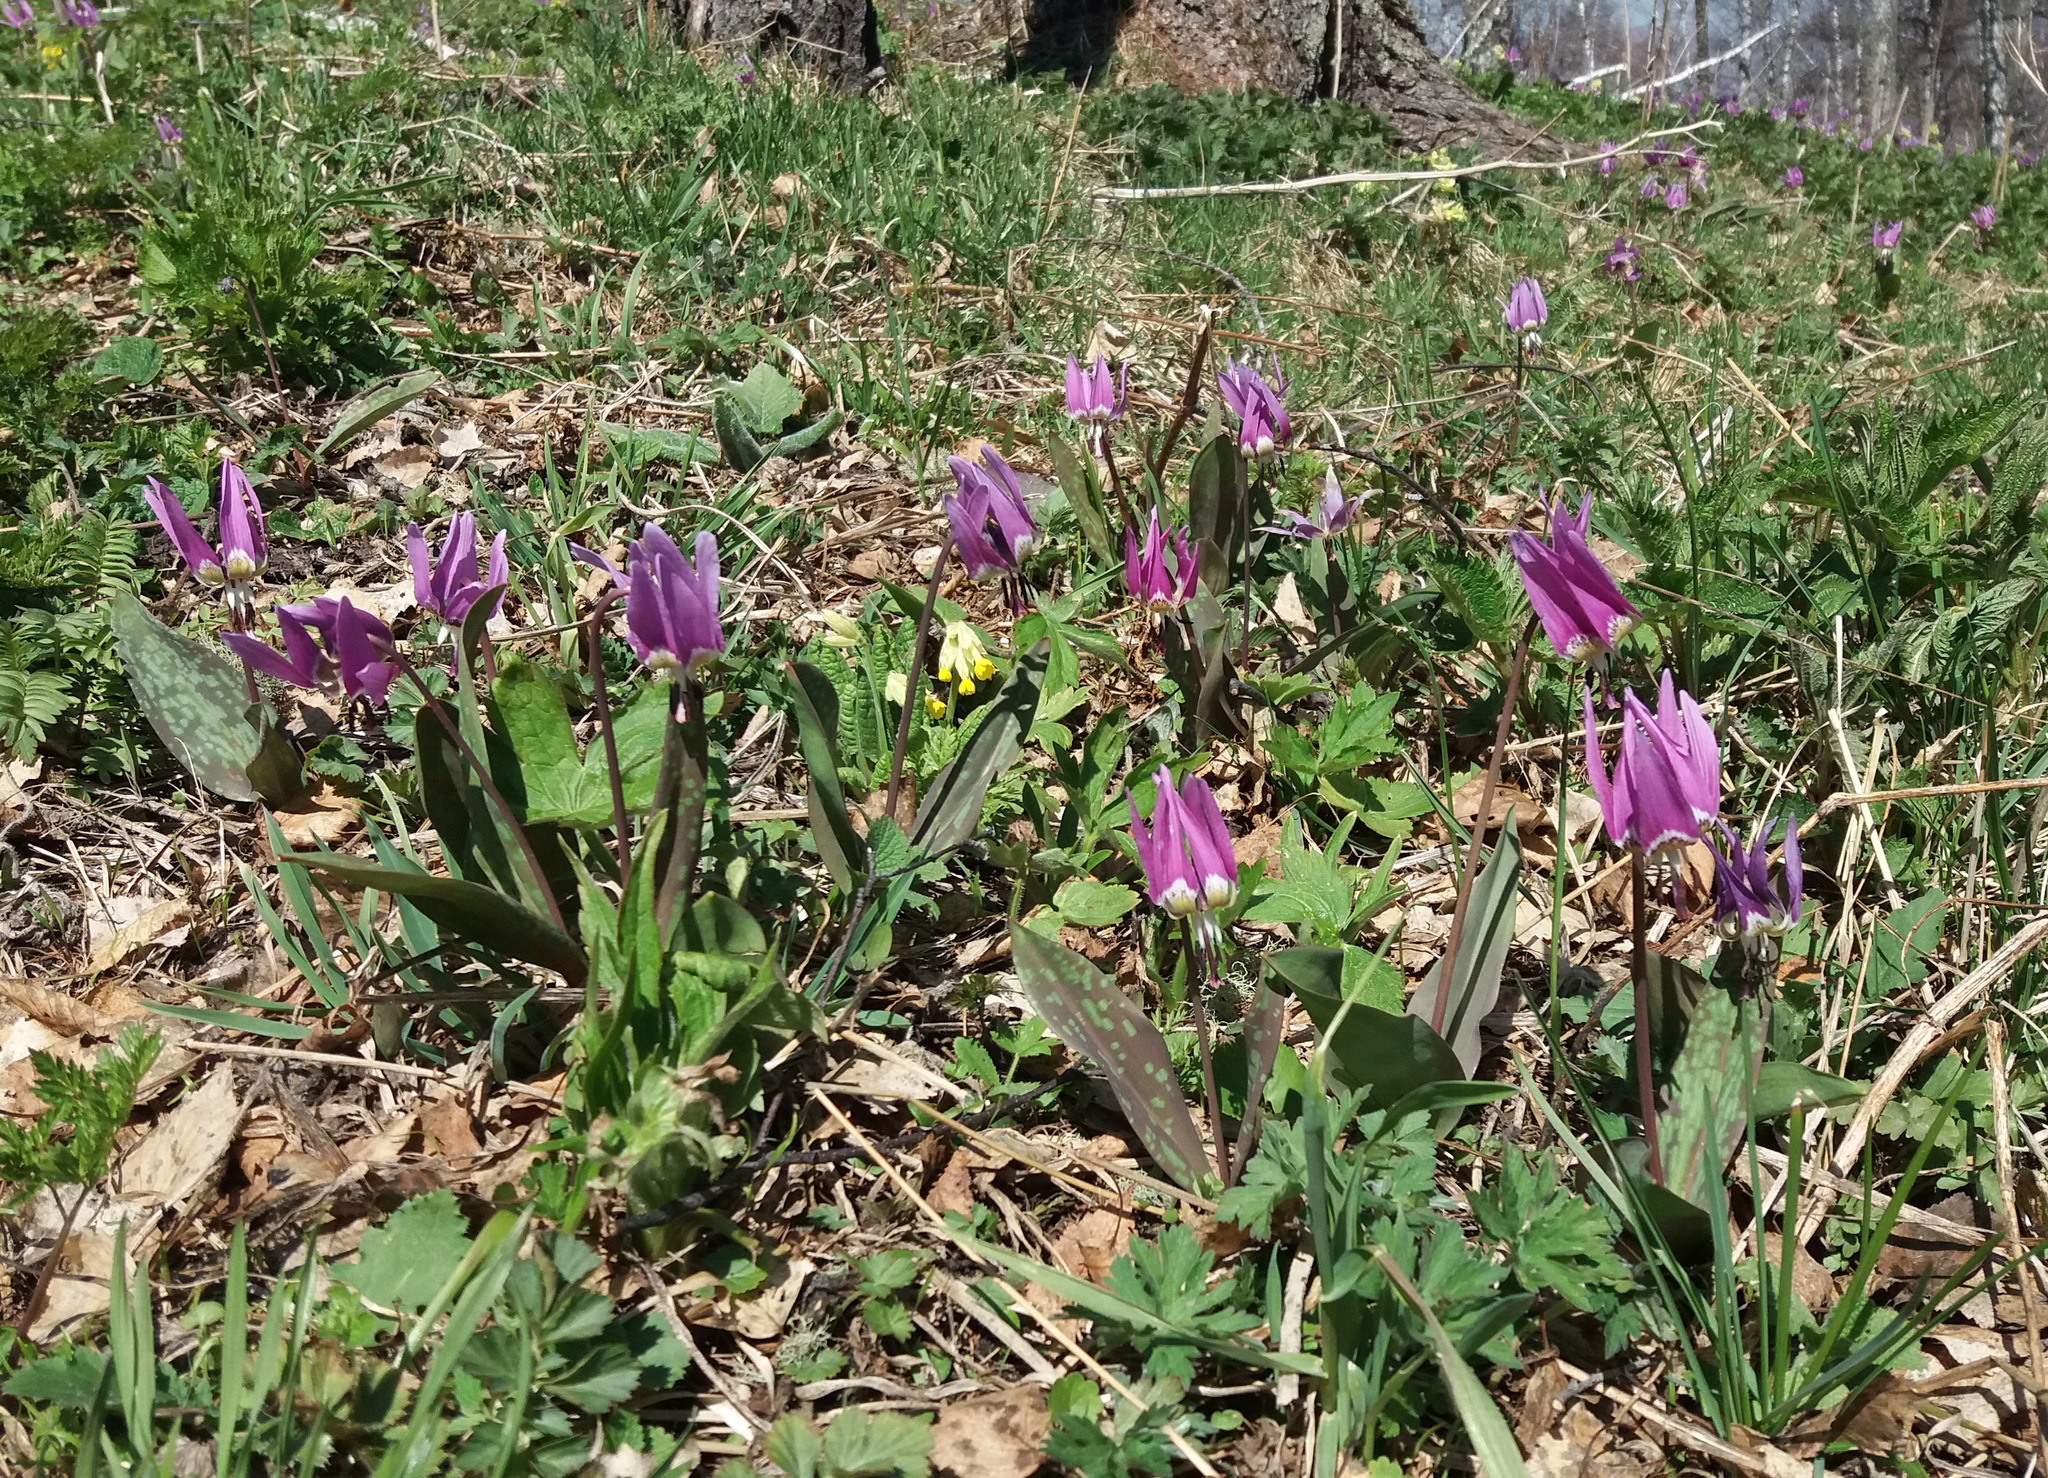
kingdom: Plantae
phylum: Tracheophyta
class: Liliopsida
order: Liliales
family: Liliaceae
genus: Erythronium
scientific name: Erythronium sulevii
